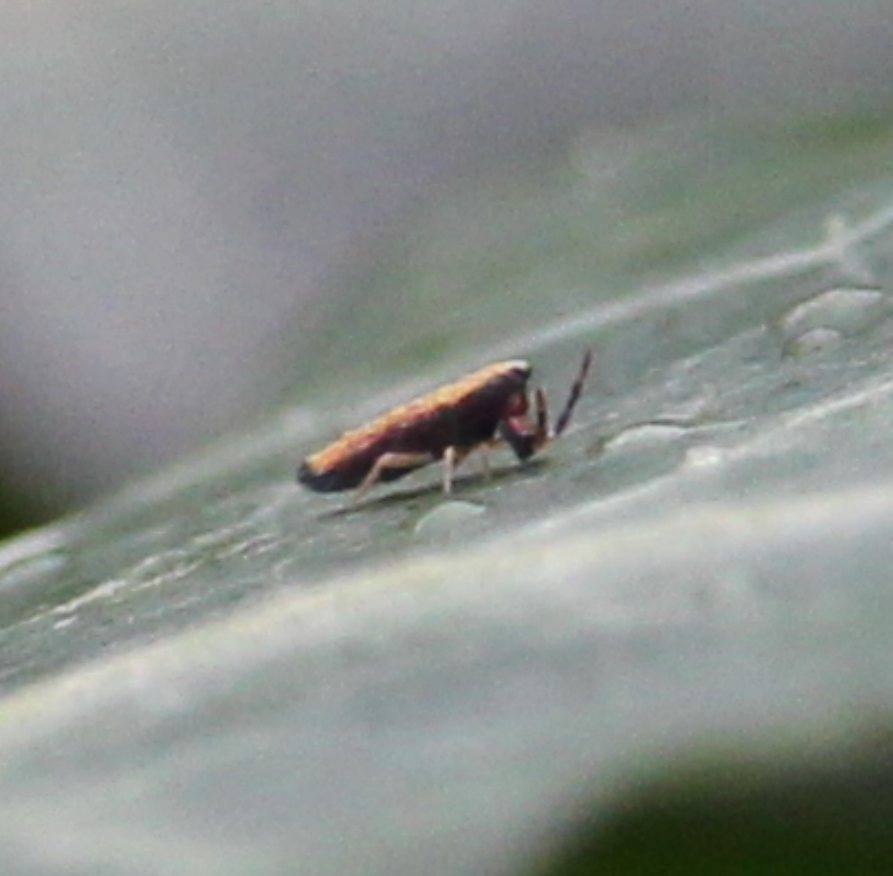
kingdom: Animalia
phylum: Arthropoda
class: Collembola
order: Entomobryomorpha
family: Entomobryidae
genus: Lepidocyrtus
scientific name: Lepidocyrtus paradoxus
